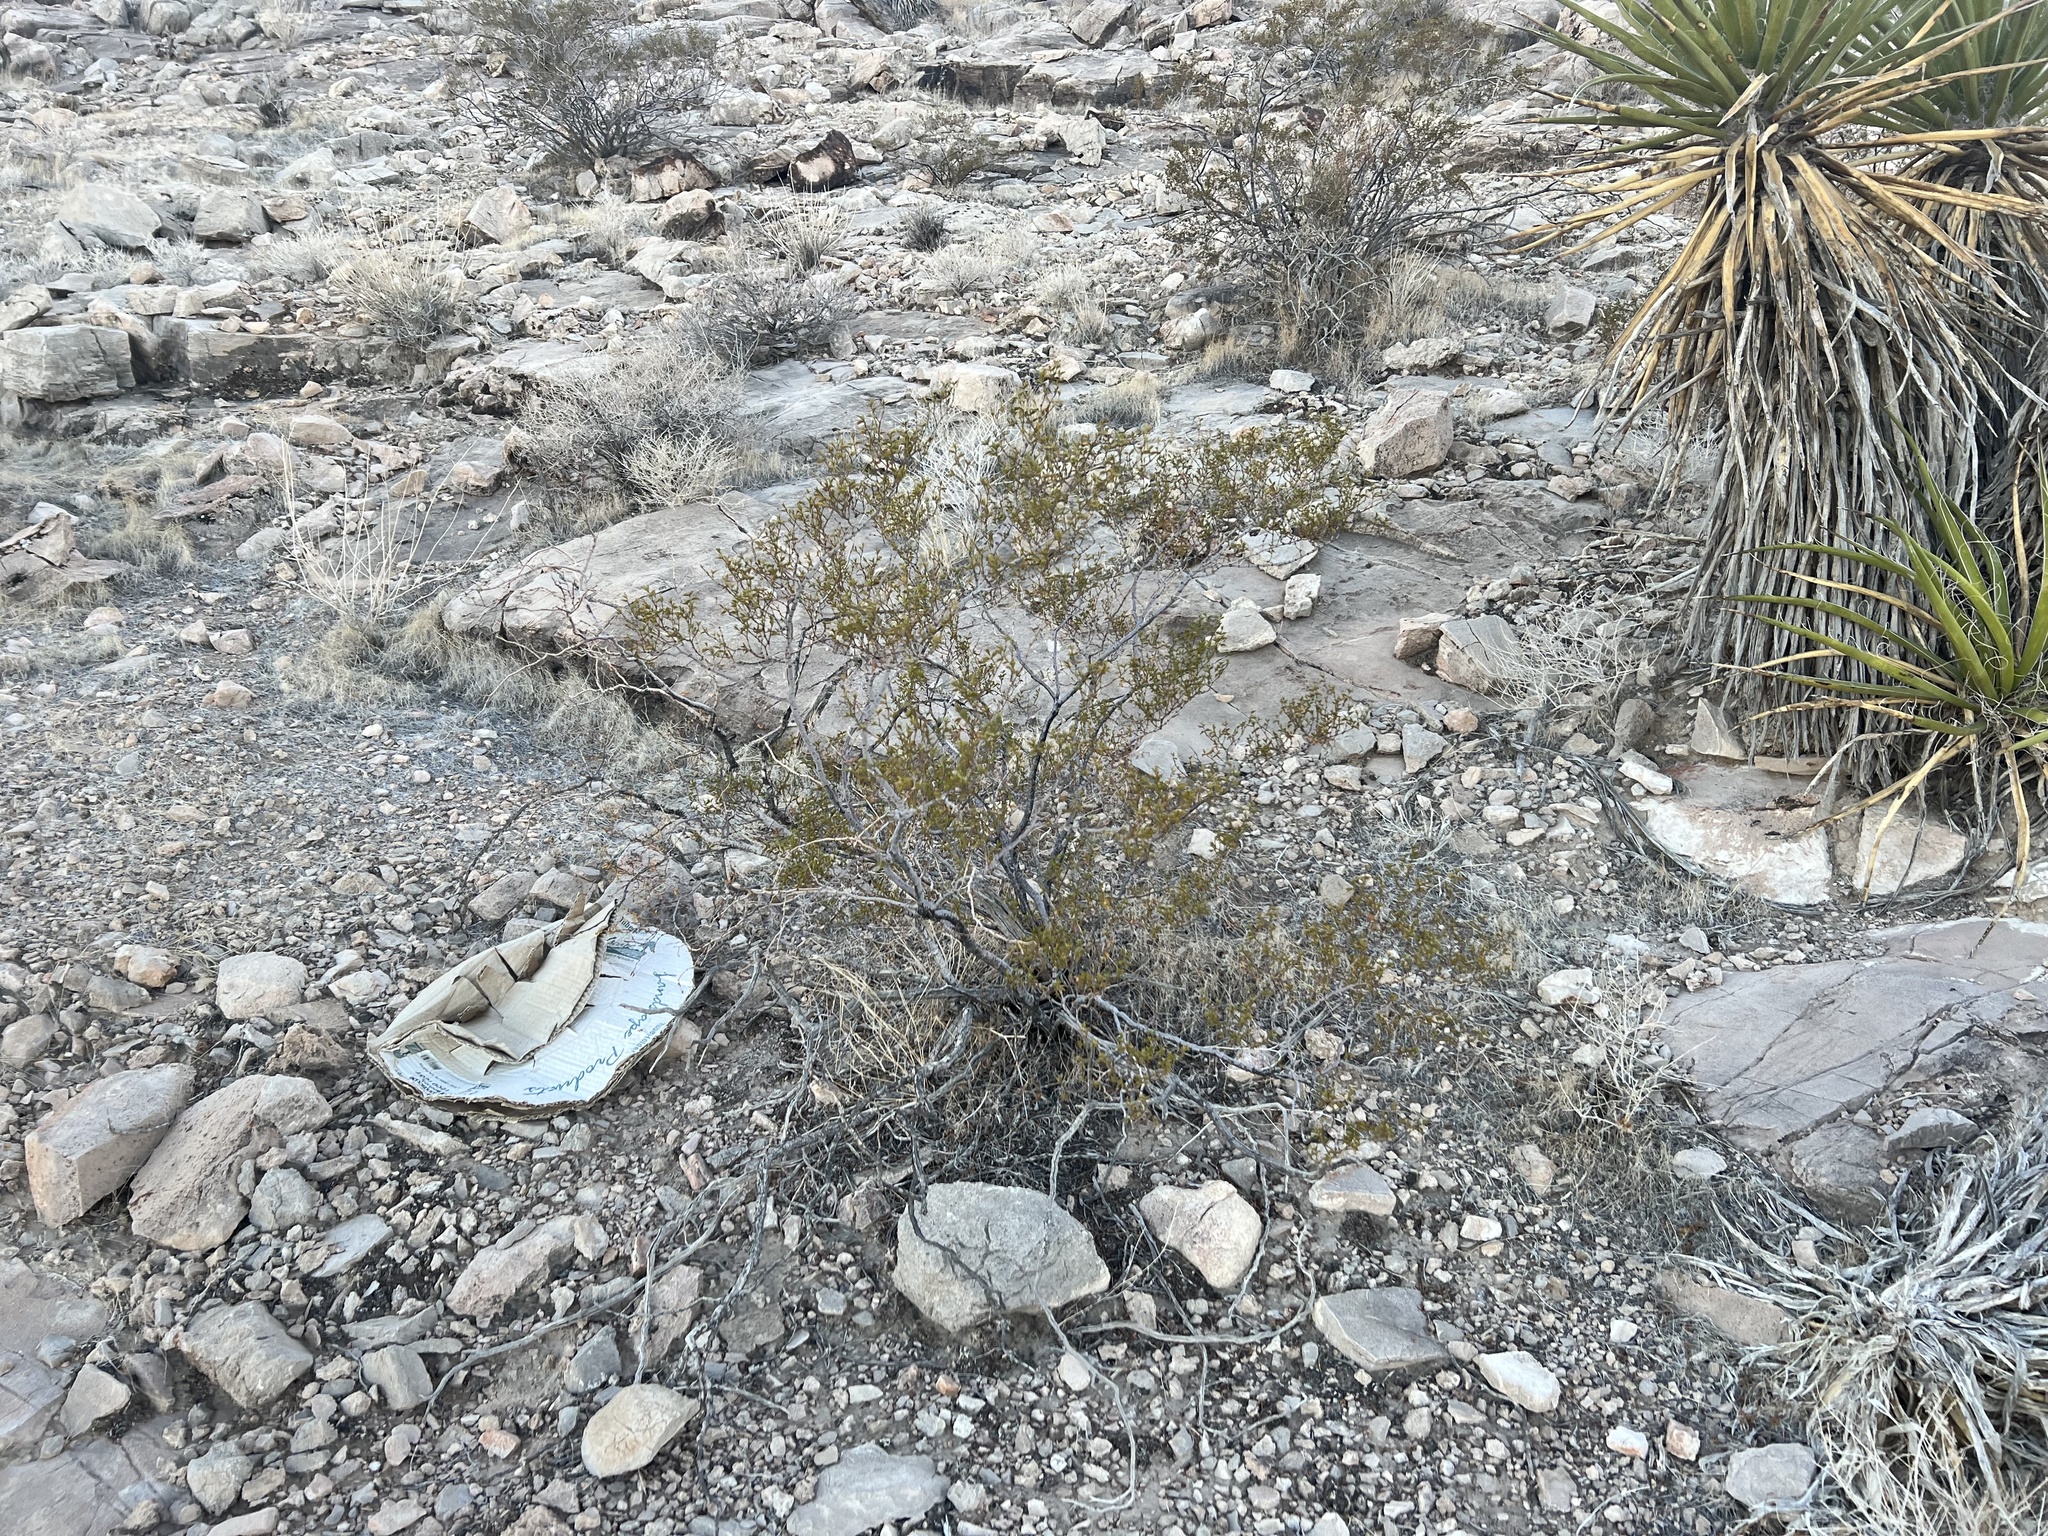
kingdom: Plantae
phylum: Tracheophyta
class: Magnoliopsida
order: Zygophyllales
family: Zygophyllaceae
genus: Larrea
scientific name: Larrea tridentata
